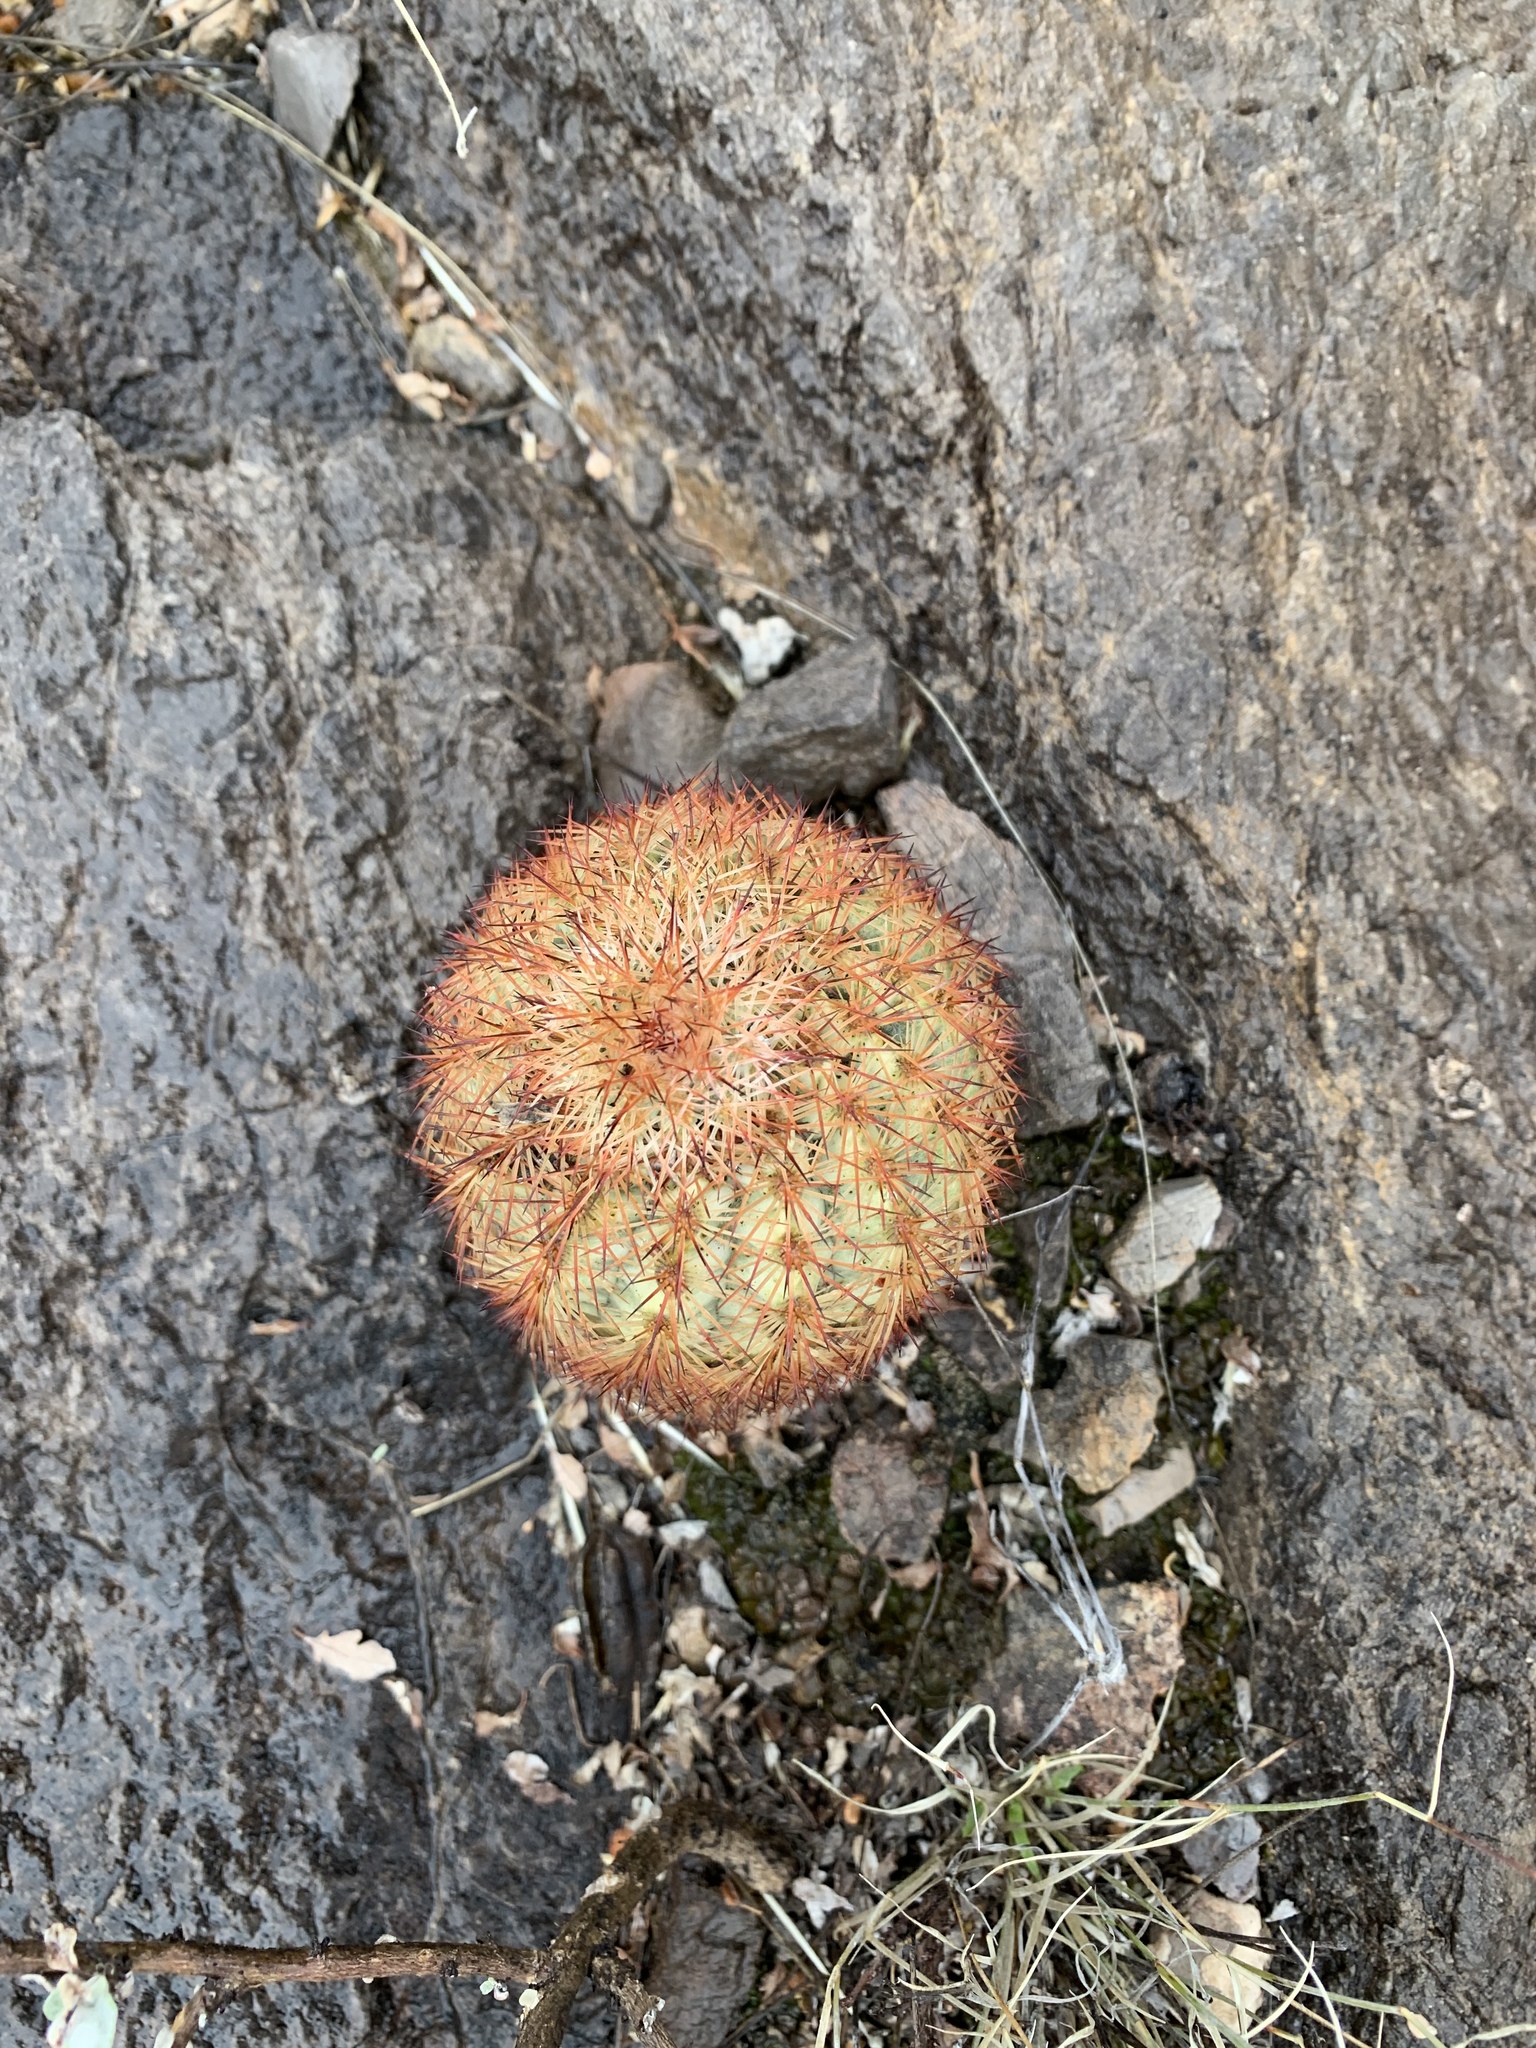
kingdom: Plantae
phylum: Tracheophyta
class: Magnoliopsida
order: Caryophyllales
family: Cactaceae
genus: Echinocereus
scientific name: Echinocereus dasyacanthus
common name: Spiny hedgehog cactus
